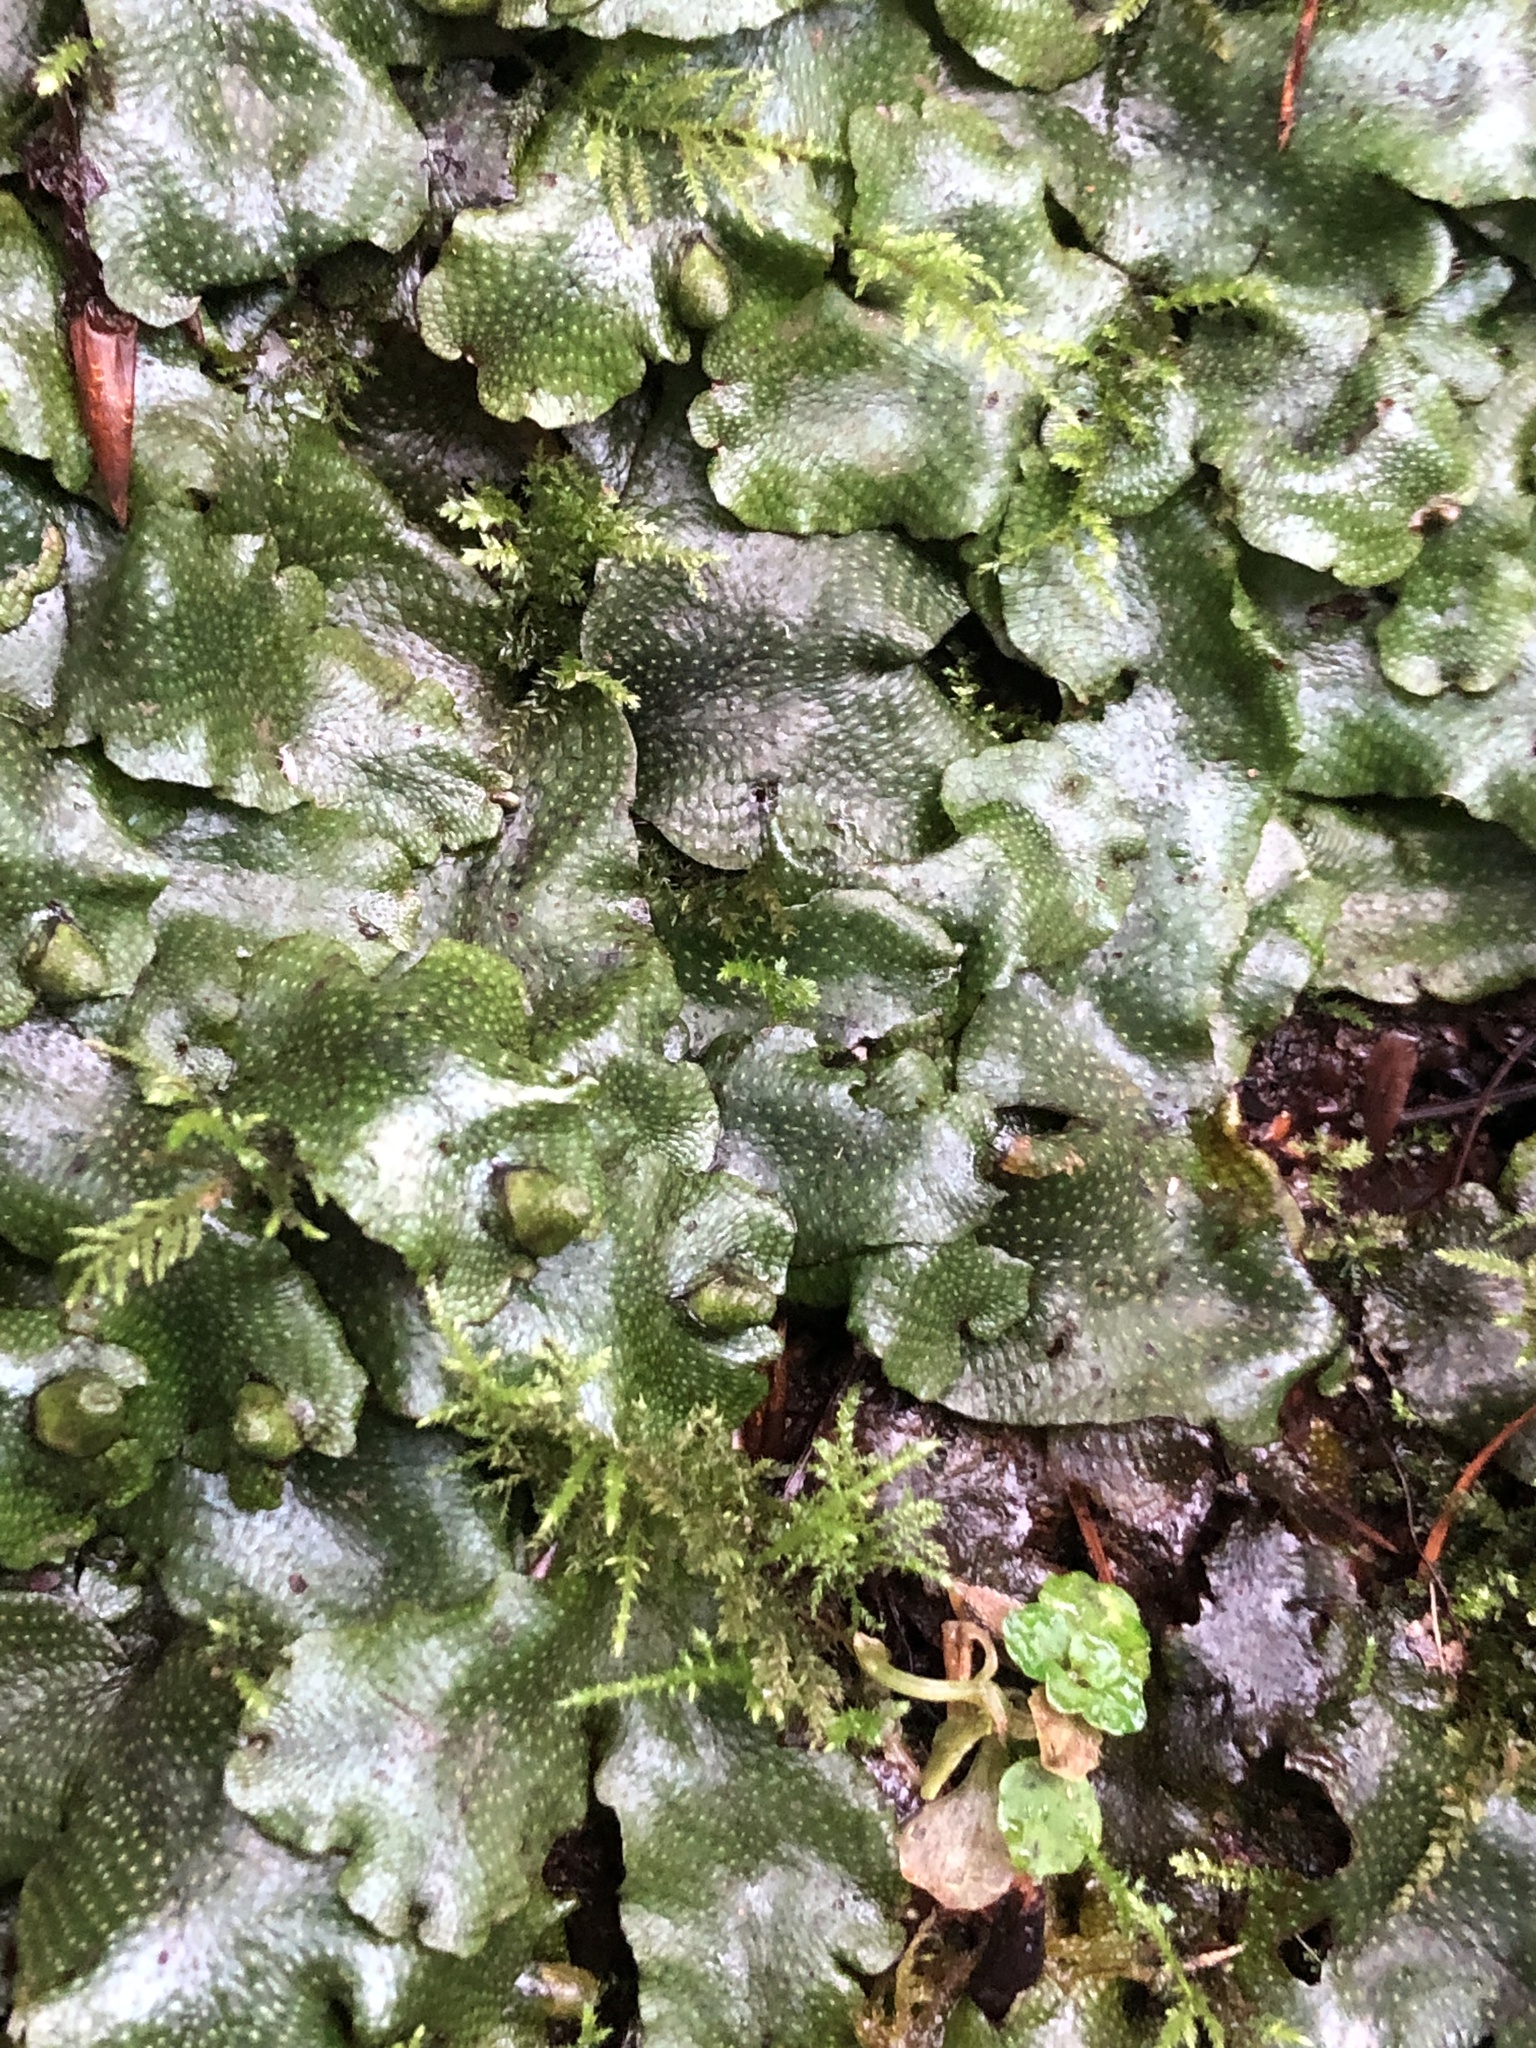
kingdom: Plantae
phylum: Marchantiophyta
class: Marchantiopsida
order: Marchantiales
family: Conocephalaceae
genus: Conocephalum
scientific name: Conocephalum conicum
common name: Great scented liverwort
